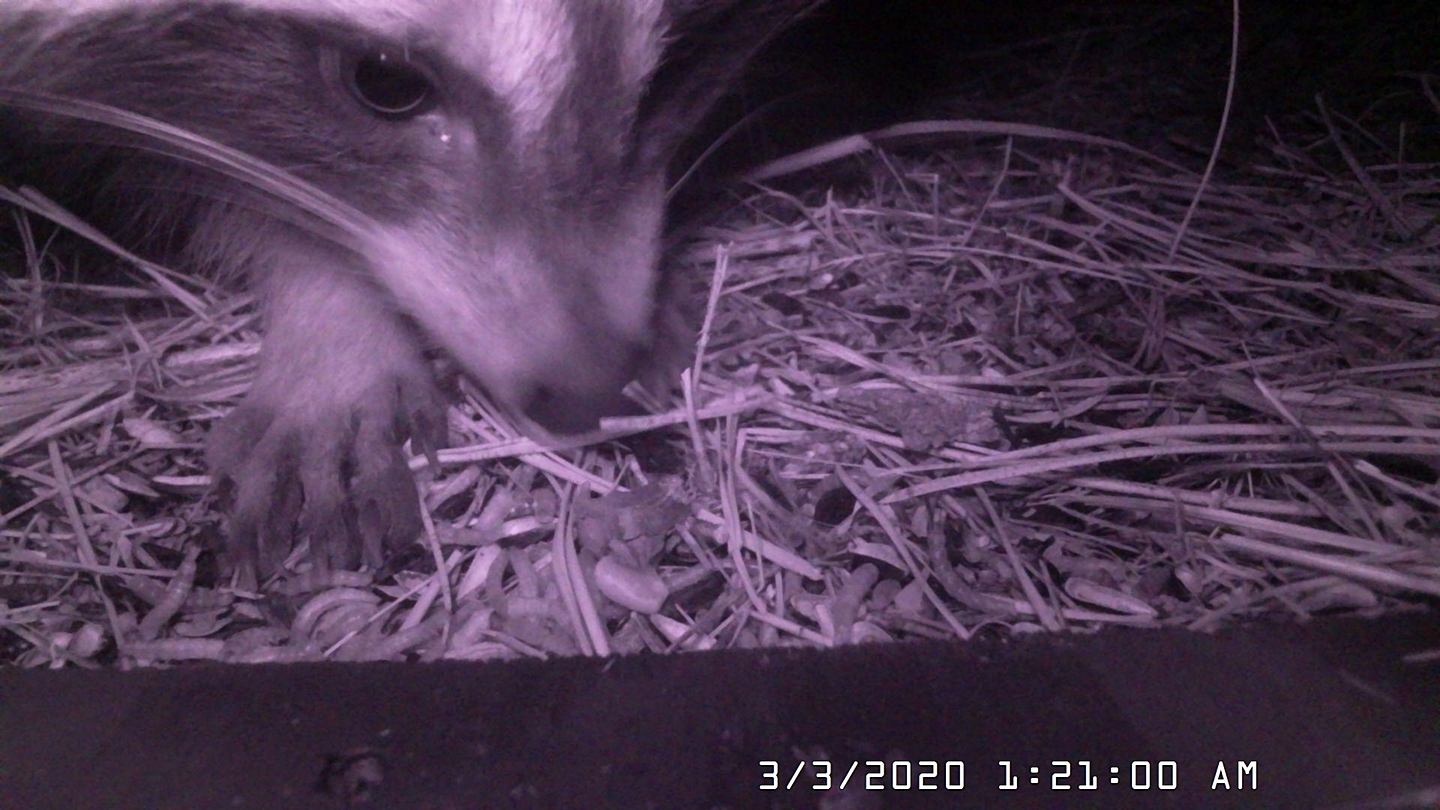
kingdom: Animalia
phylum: Chordata
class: Mammalia
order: Carnivora
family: Procyonidae
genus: Procyon
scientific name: Procyon lotor
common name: Raccoon
